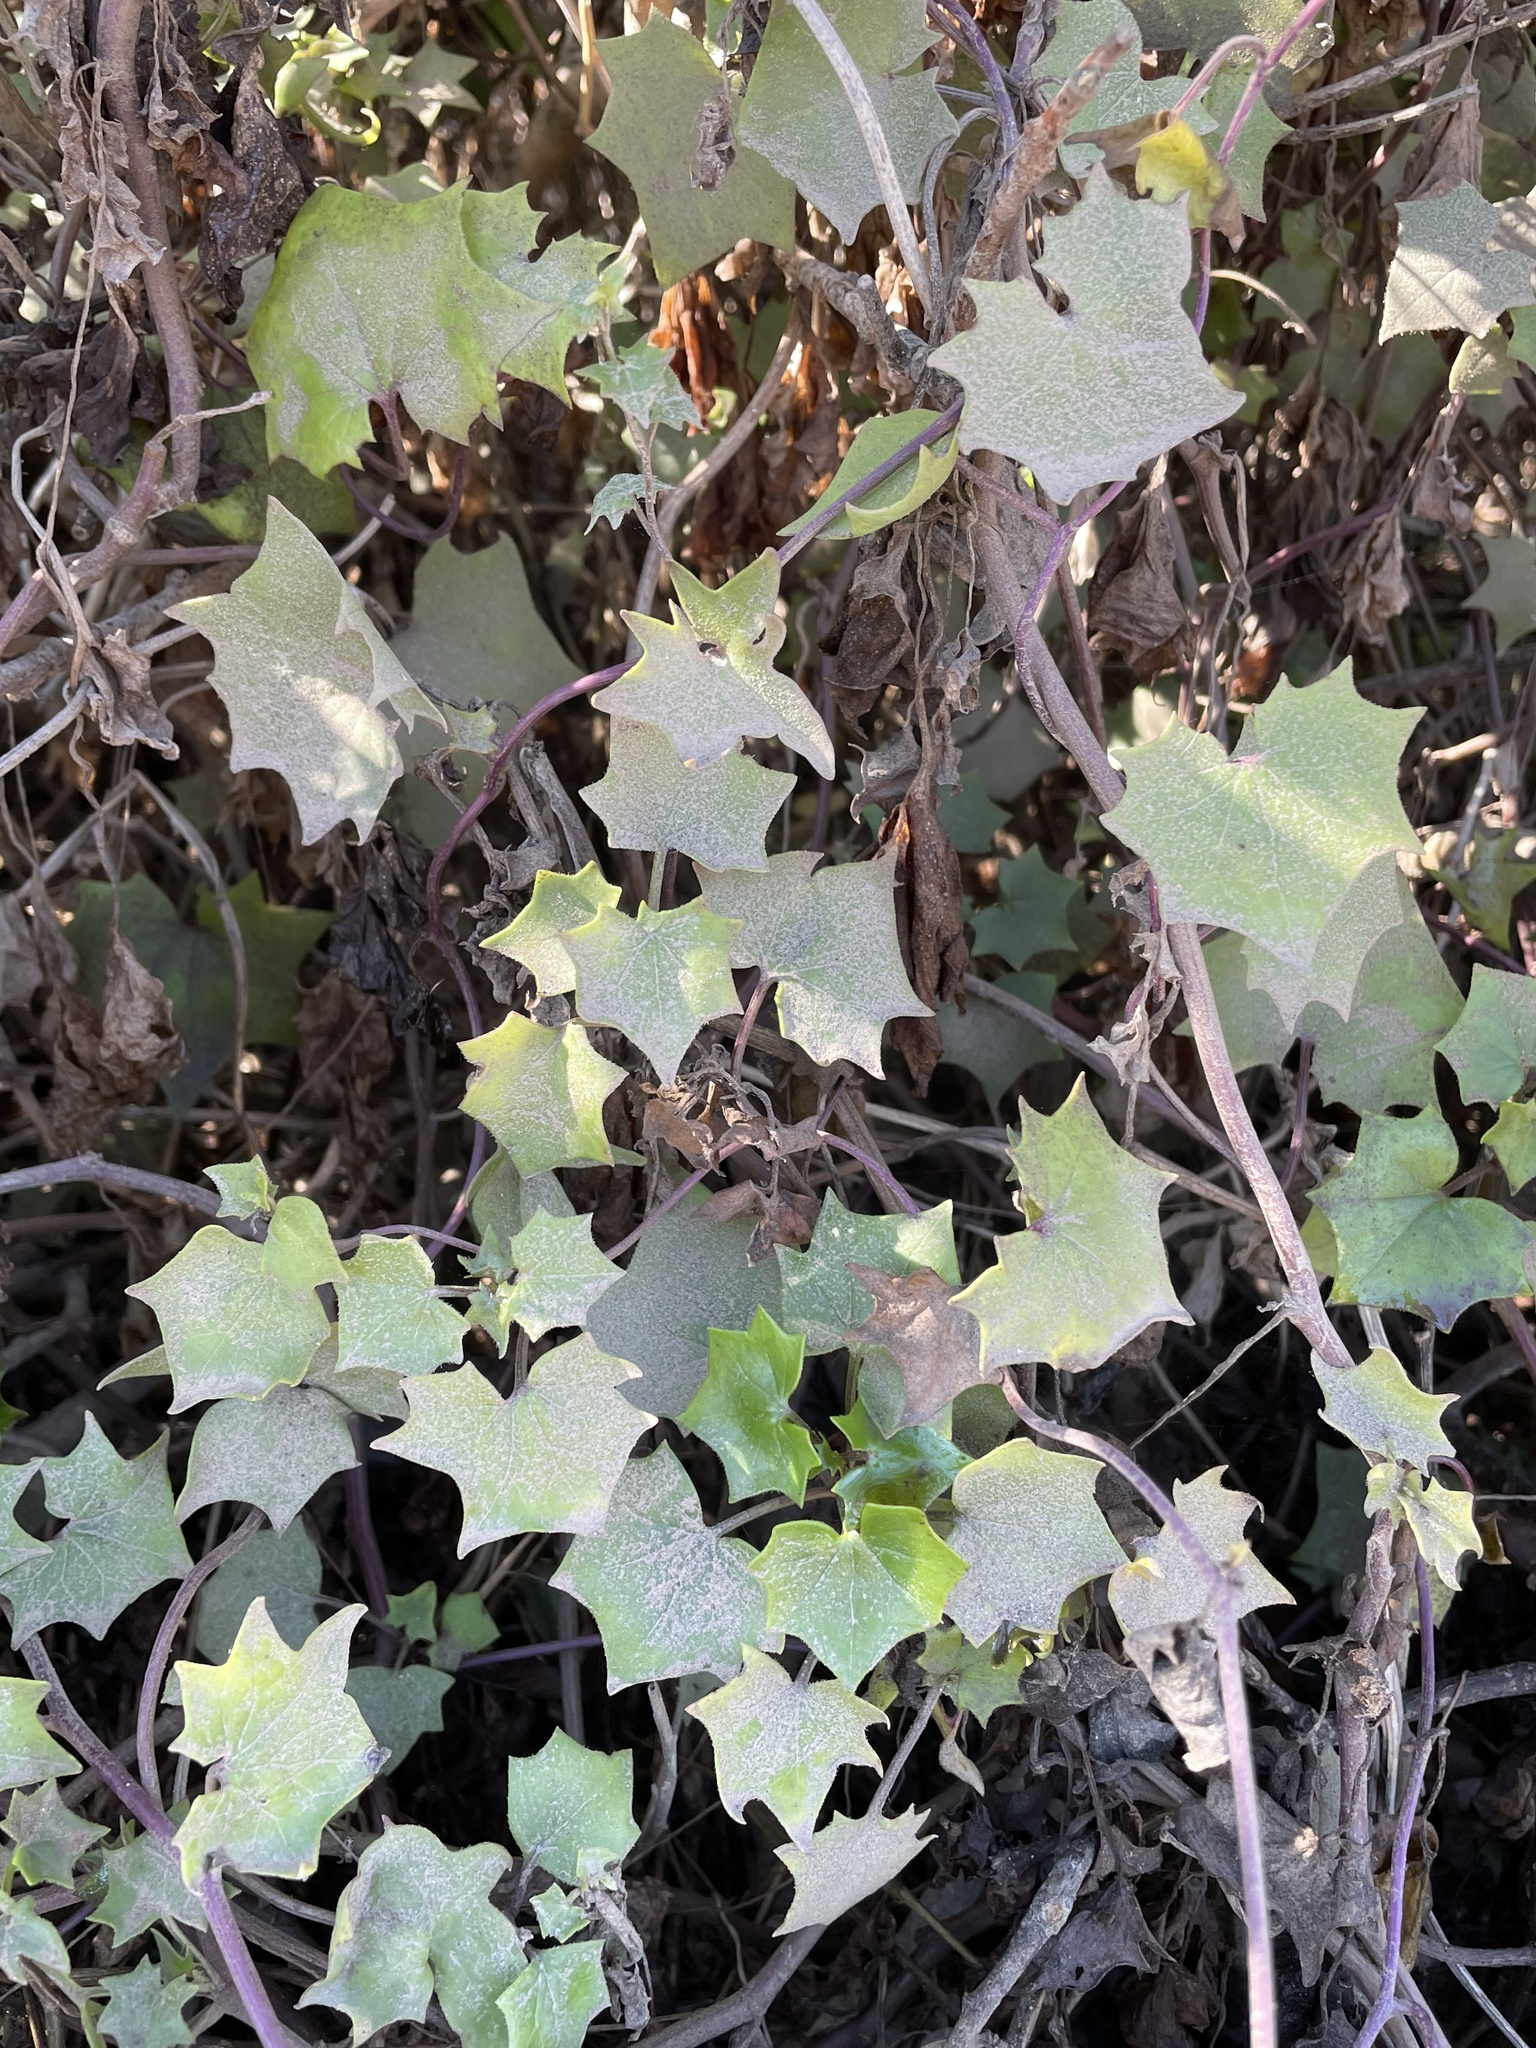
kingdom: Plantae
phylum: Tracheophyta
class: Magnoliopsida
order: Asterales
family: Asteraceae
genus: Delairea
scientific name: Delairea odorata
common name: Cape-ivy
